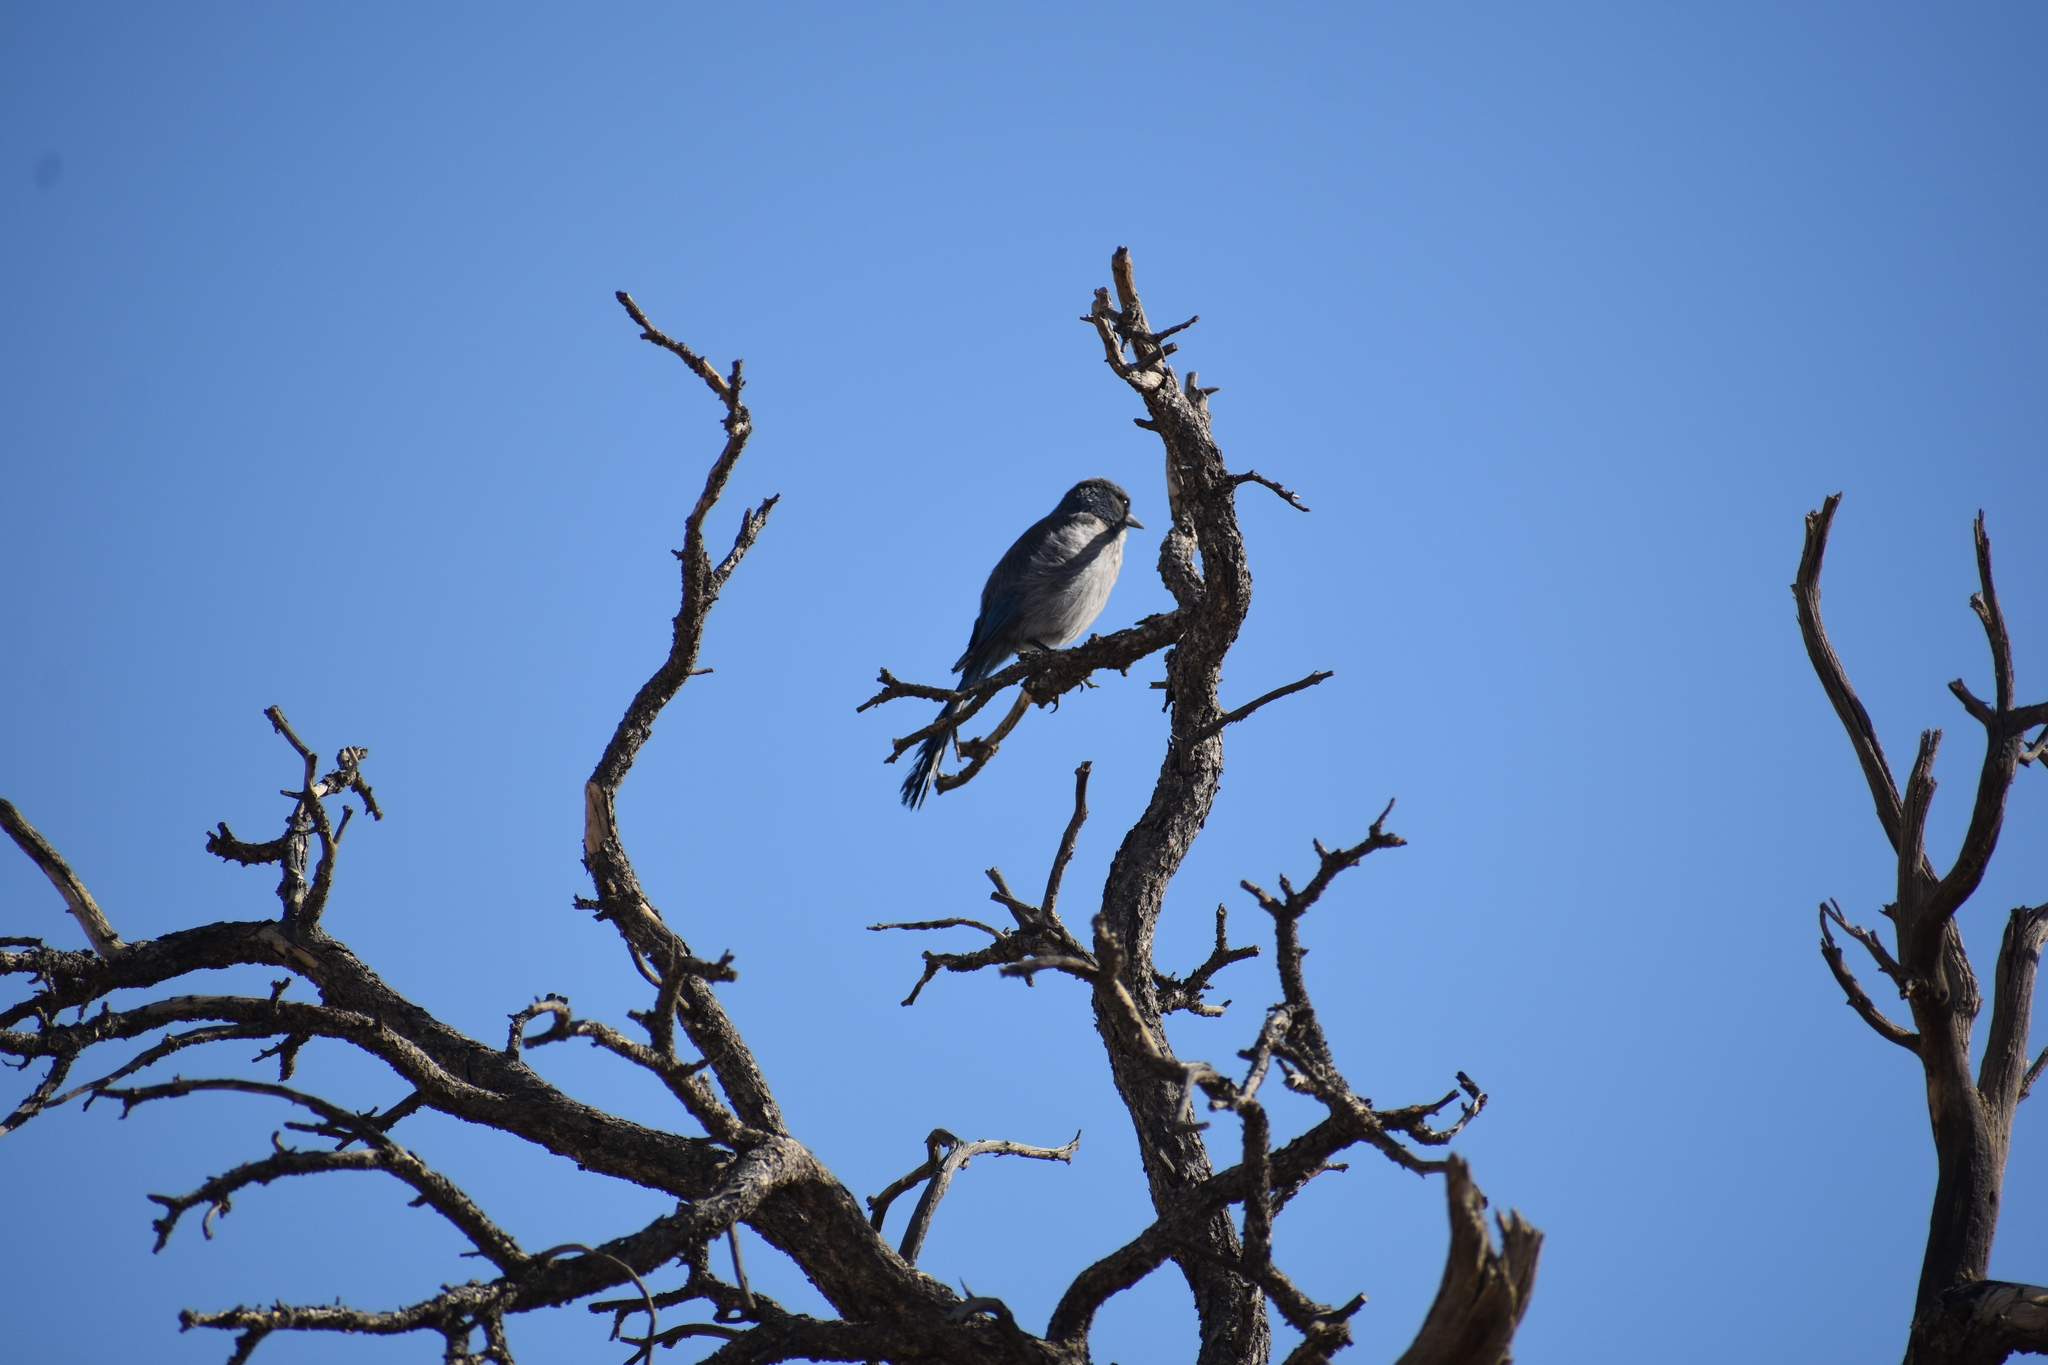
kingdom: Animalia
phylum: Chordata
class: Aves
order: Passeriformes
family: Corvidae
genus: Aphelocoma
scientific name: Aphelocoma woodhouseii
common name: Woodhouse's scrub-jay
